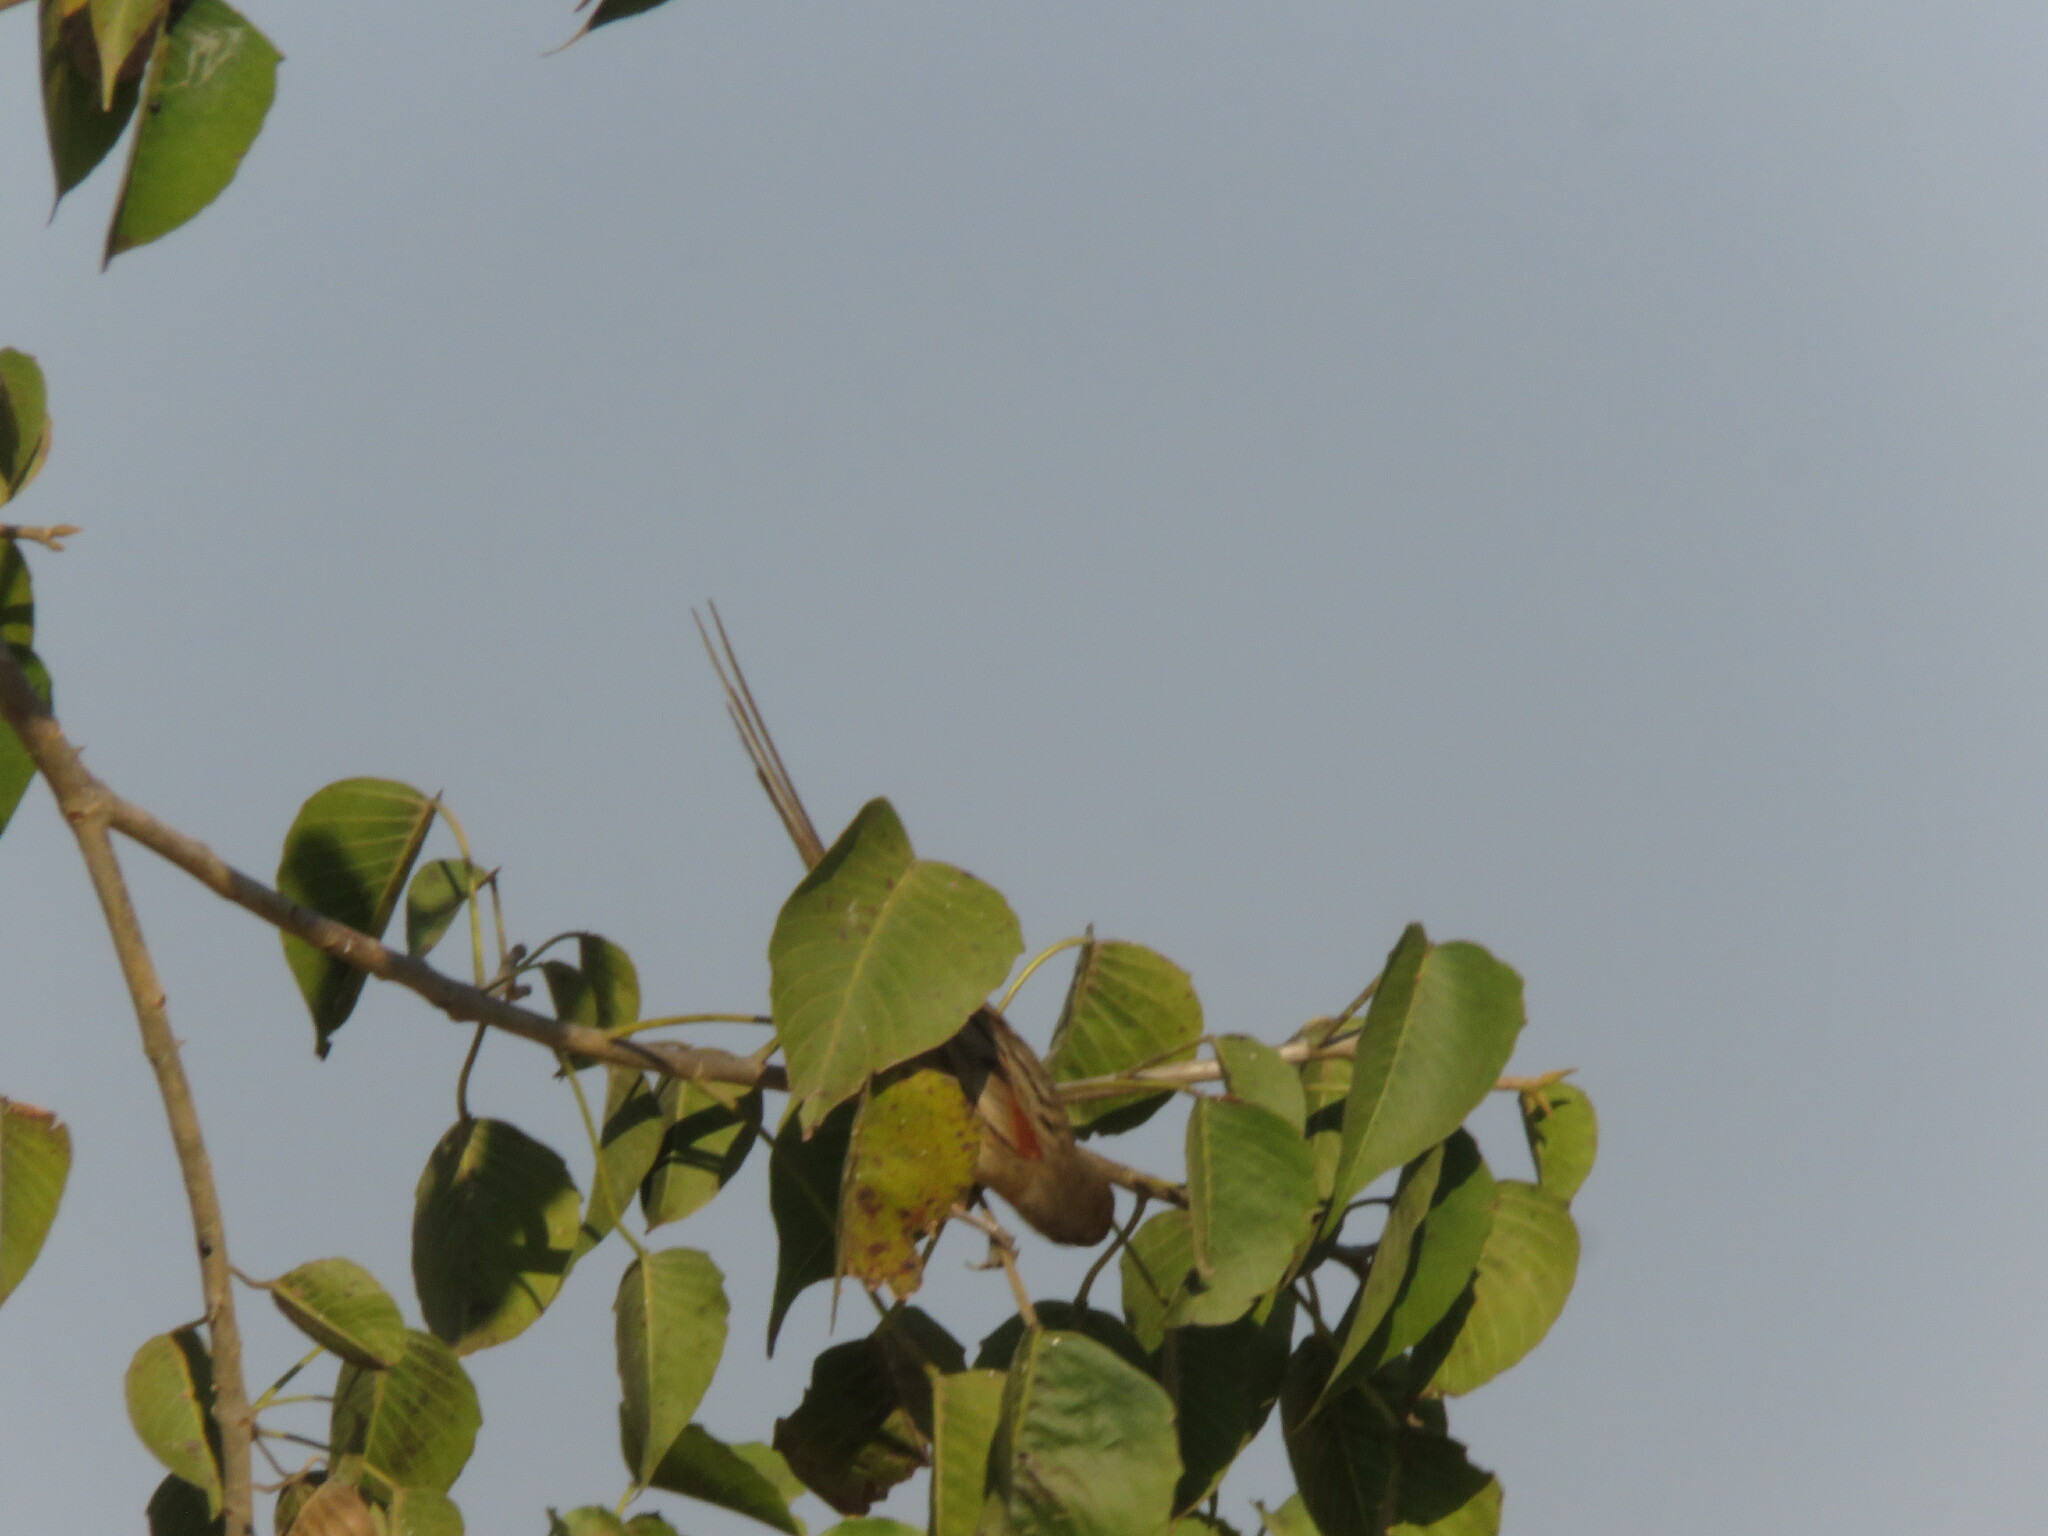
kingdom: Animalia
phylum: Chordata
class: Aves
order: Passeriformes
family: Furnariidae
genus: Schoeniophylax
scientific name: Schoeniophylax phryganophilus
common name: Chotoy spinetail
